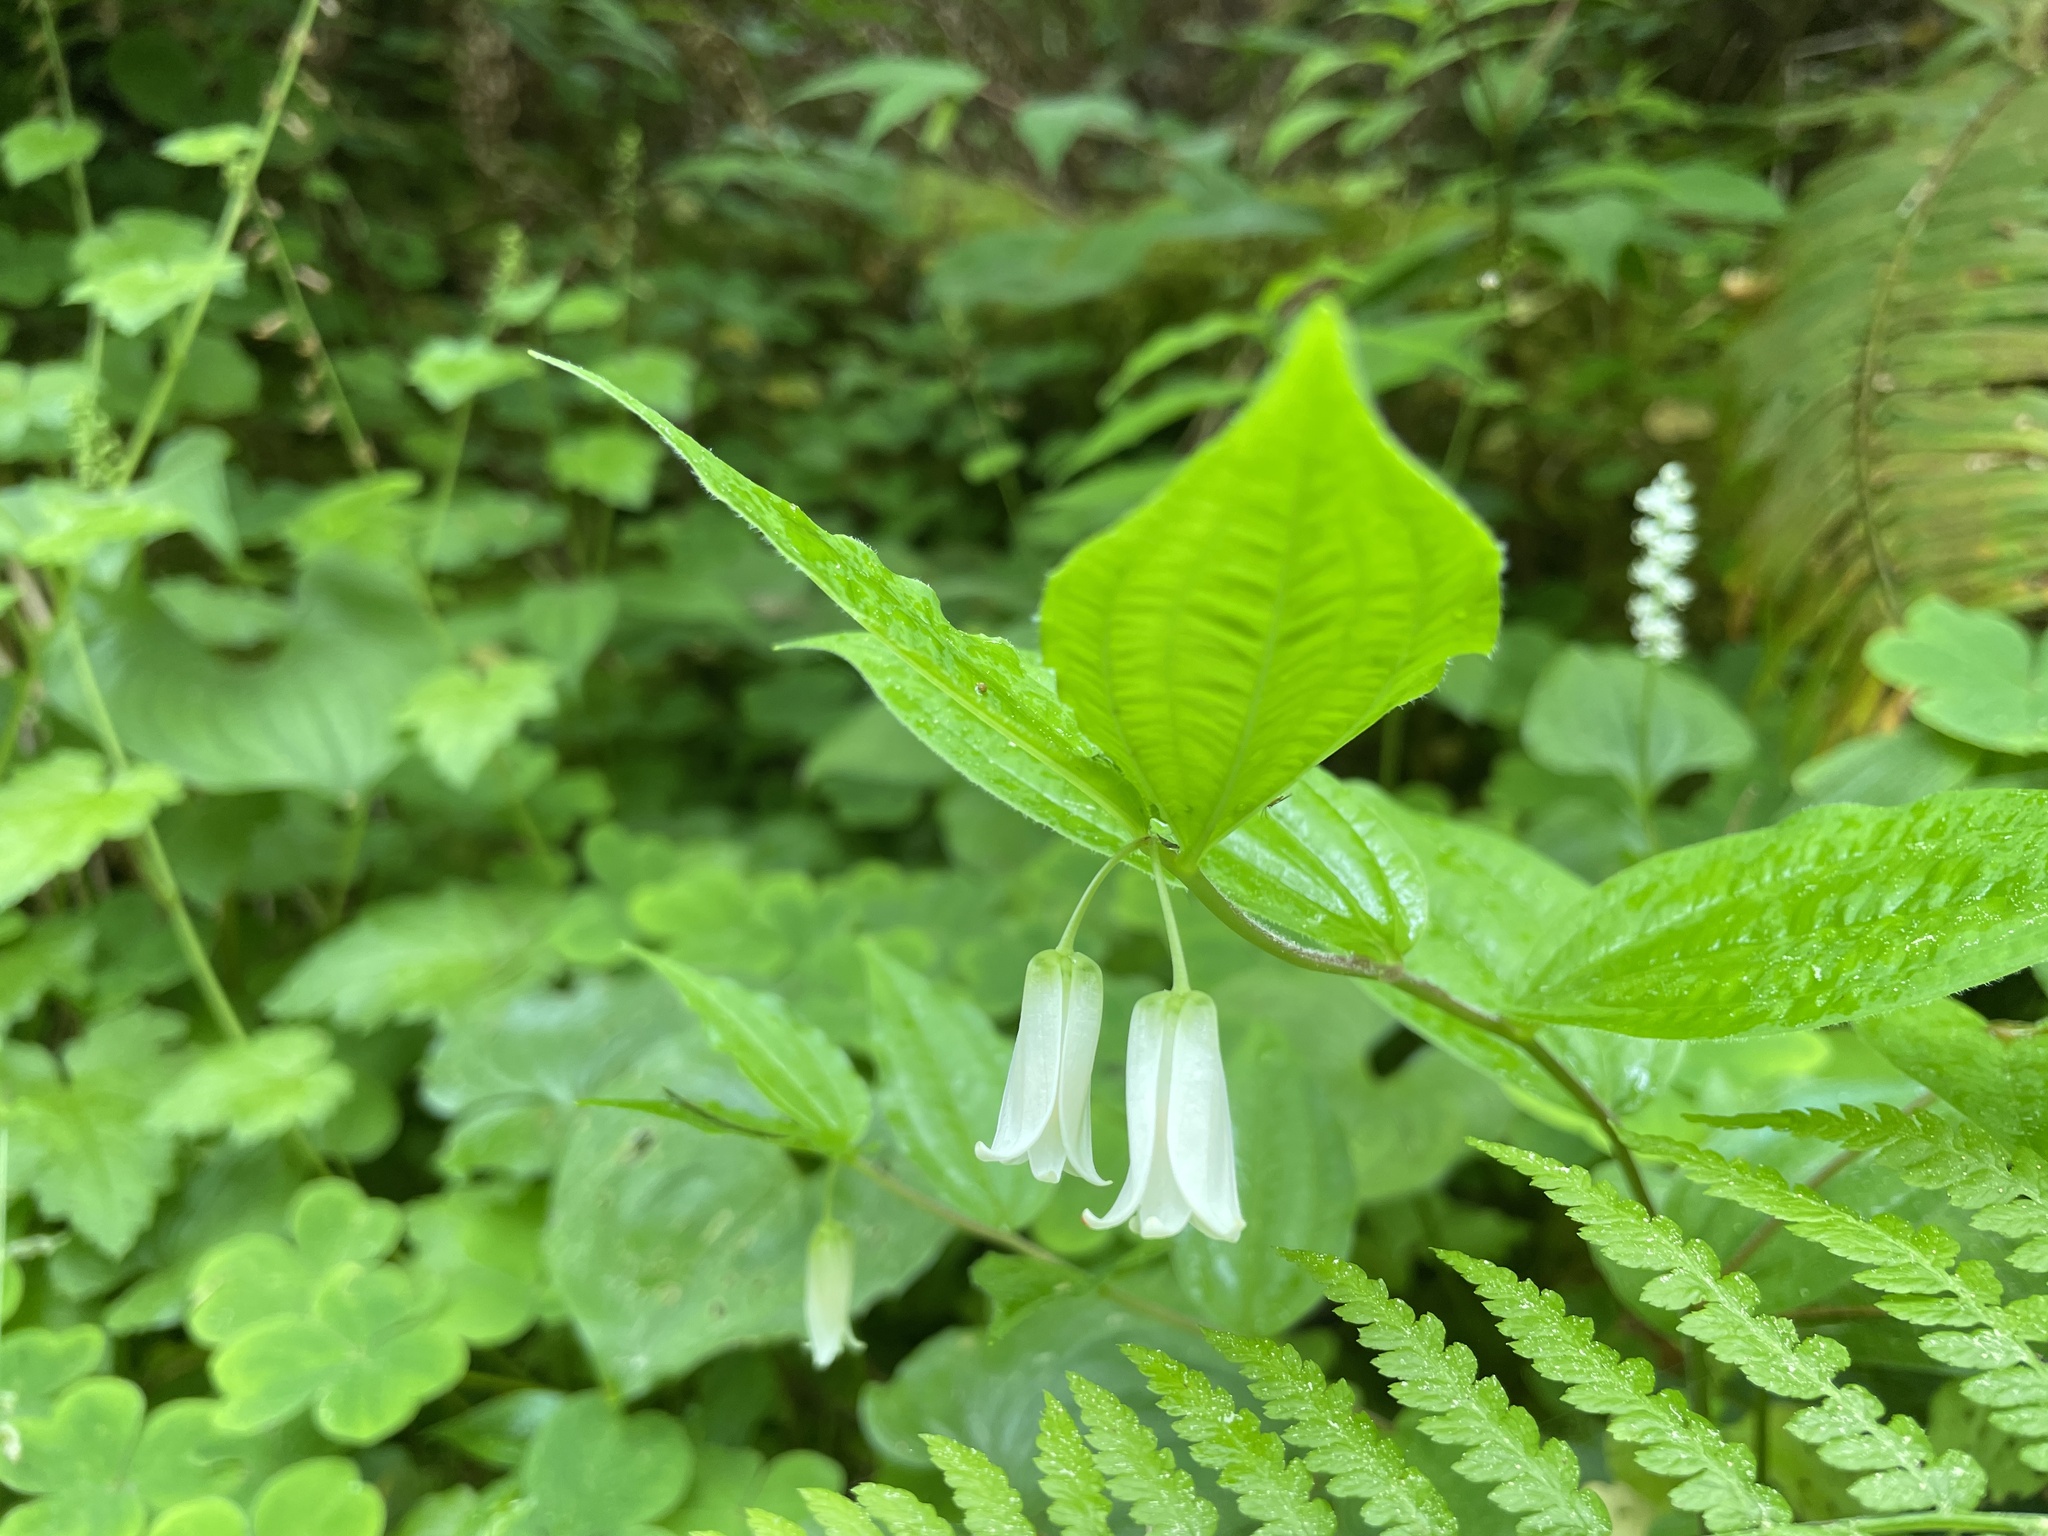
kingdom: Plantae
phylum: Tracheophyta
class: Liliopsida
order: Liliales
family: Liliaceae
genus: Prosartes
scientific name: Prosartes smithii
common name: Fairy-lantern
